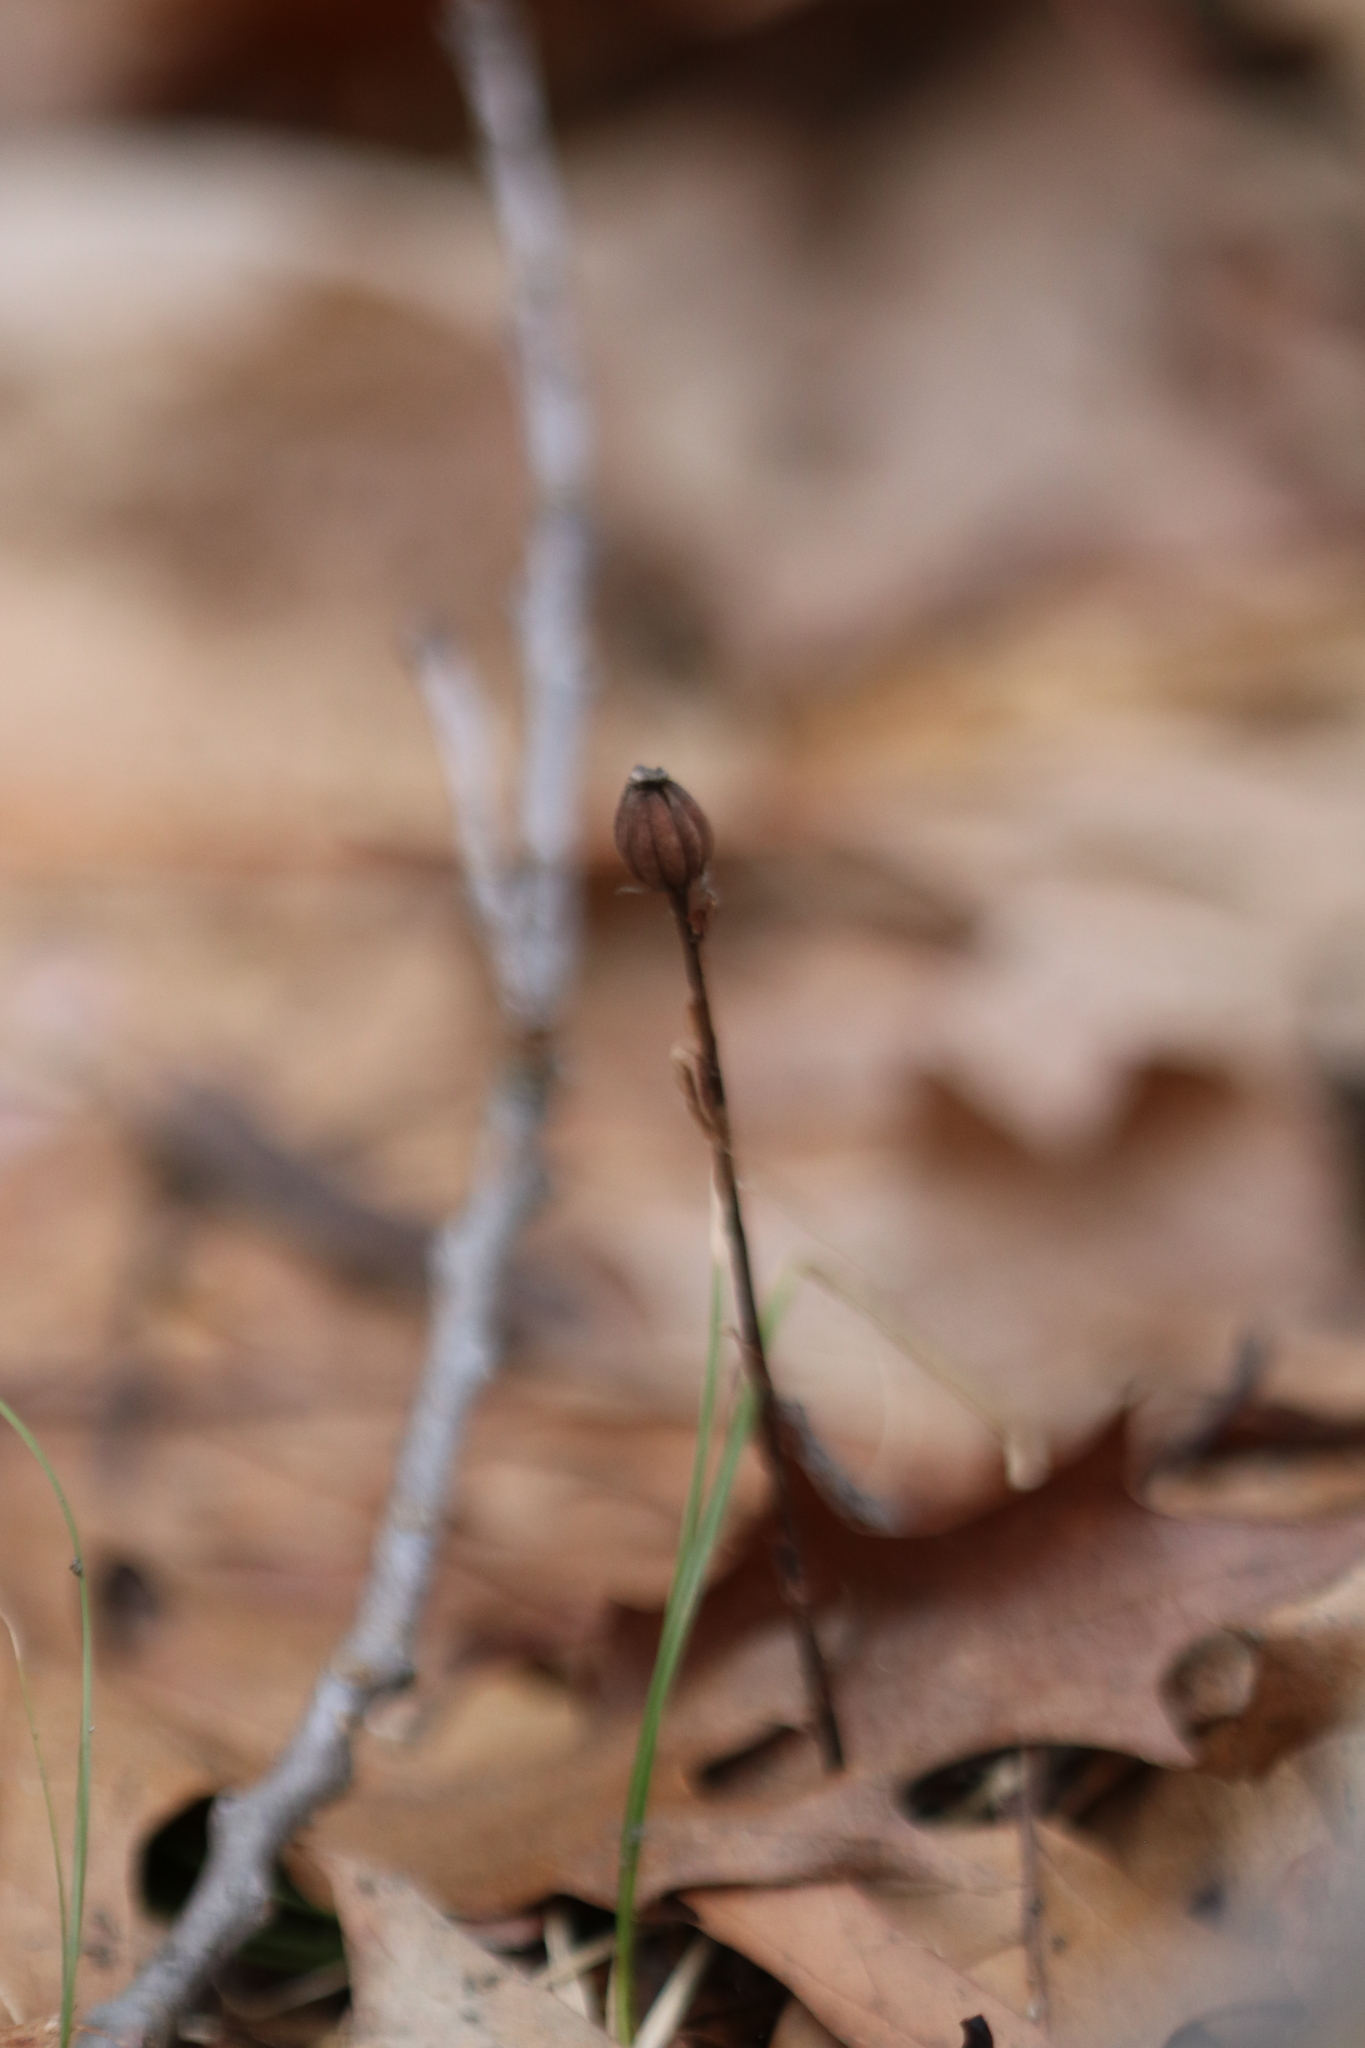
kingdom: Plantae
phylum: Tracheophyta
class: Magnoliopsida
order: Ericales
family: Ericaceae
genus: Monotropa
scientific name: Monotropa uniflora
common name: Convulsion root
